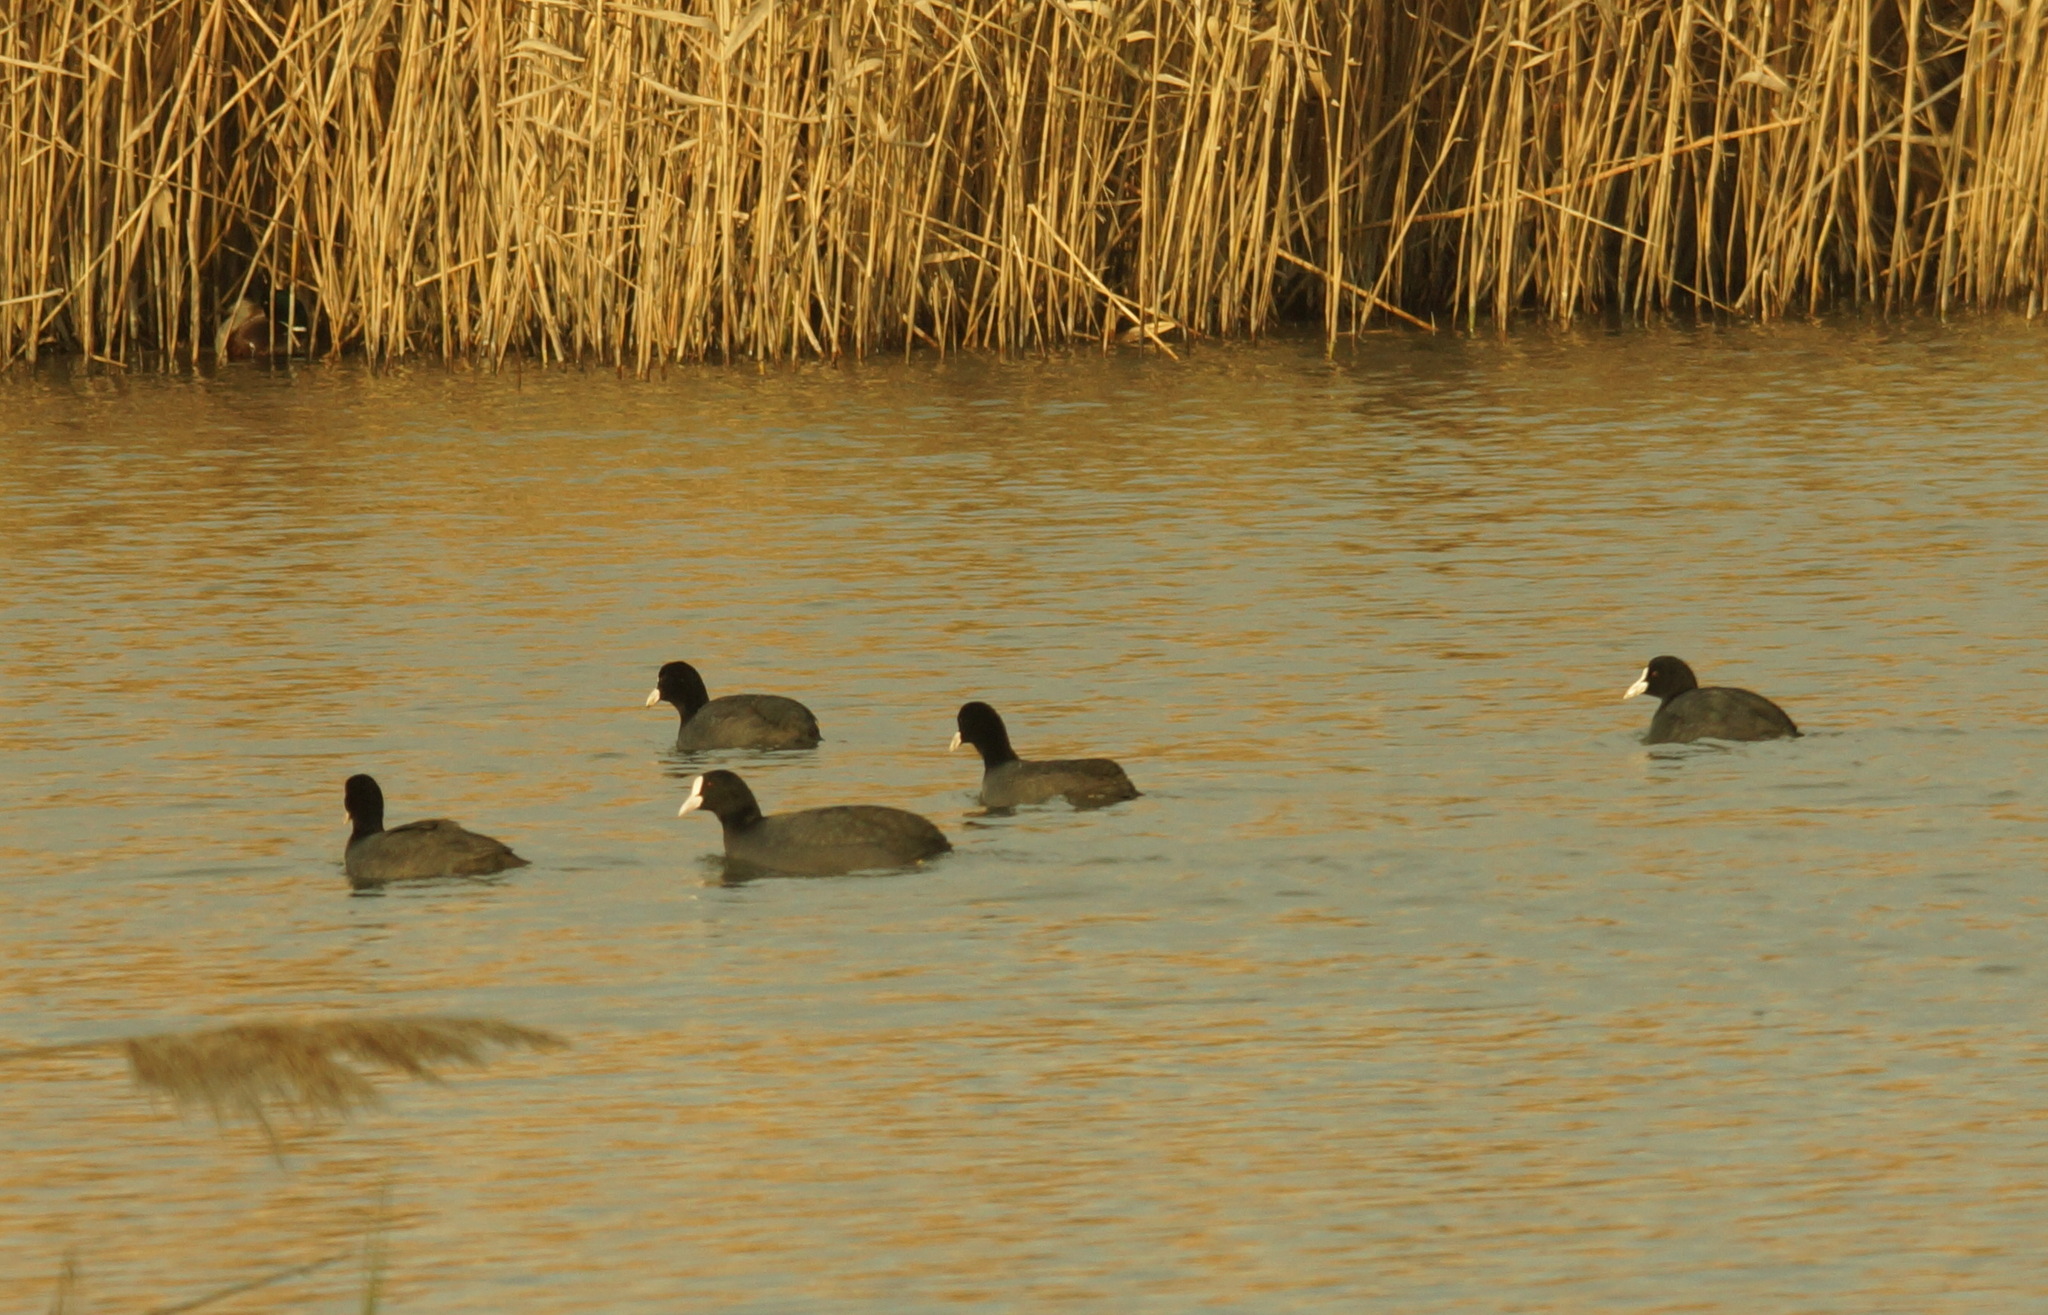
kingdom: Animalia
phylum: Chordata
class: Aves
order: Gruiformes
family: Rallidae
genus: Fulica
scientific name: Fulica atra
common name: Eurasian coot
